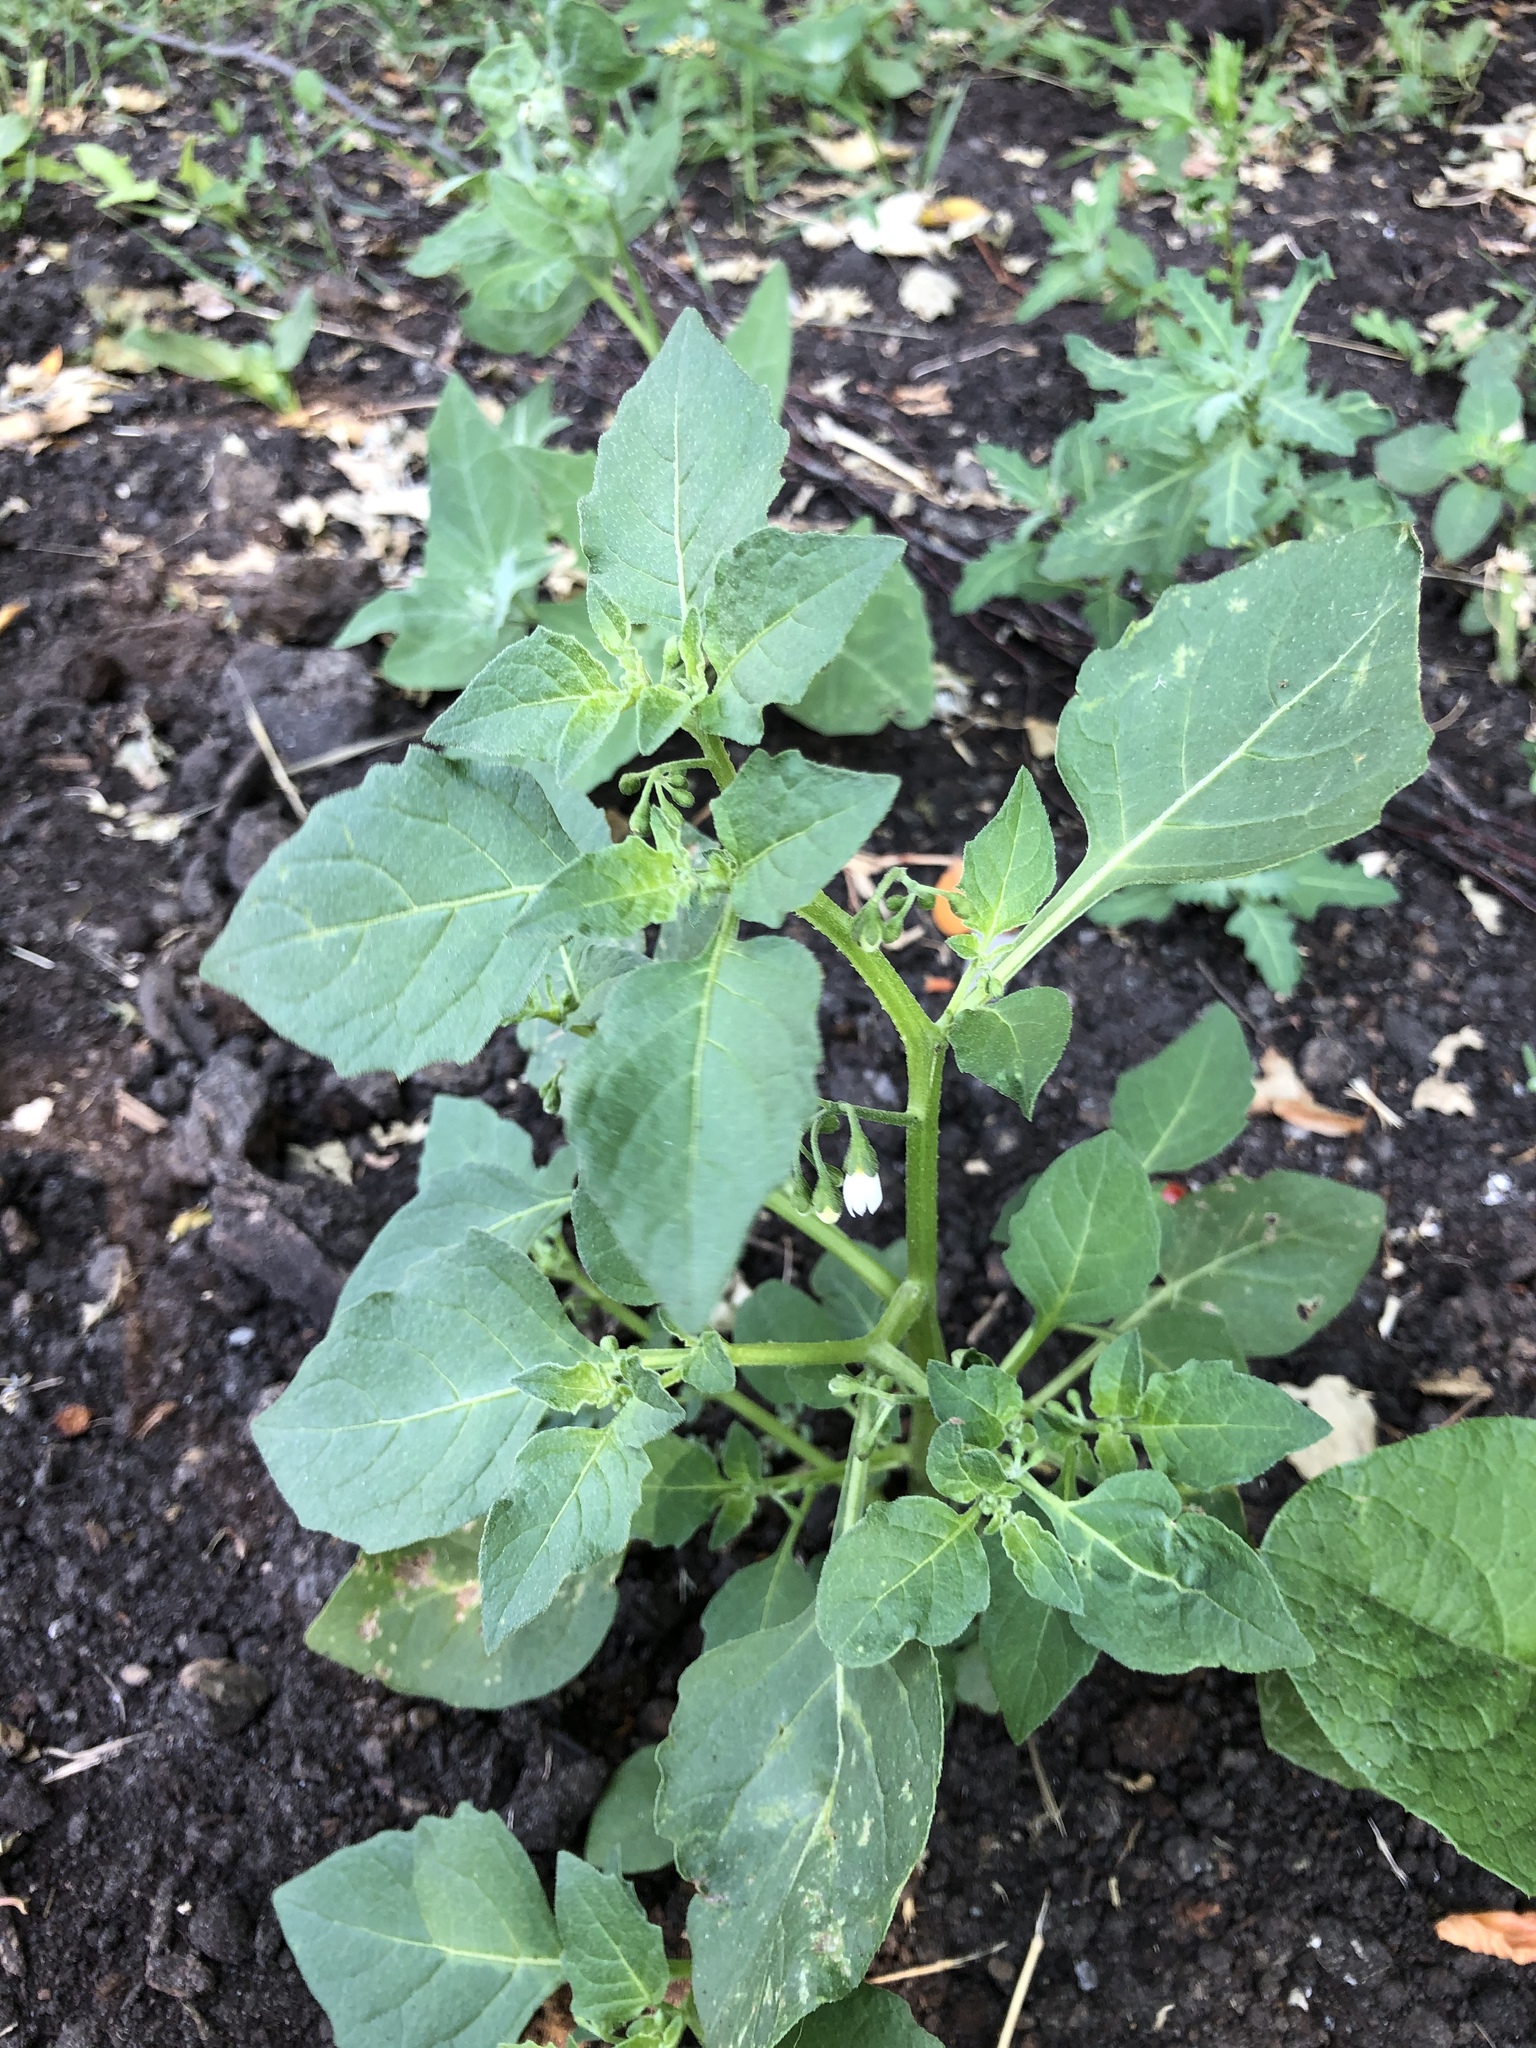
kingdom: Plantae
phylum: Tracheophyta
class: Magnoliopsida
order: Solanales
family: Solanaceae
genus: Solanum
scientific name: Solanum nigrum
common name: Black nightshade
